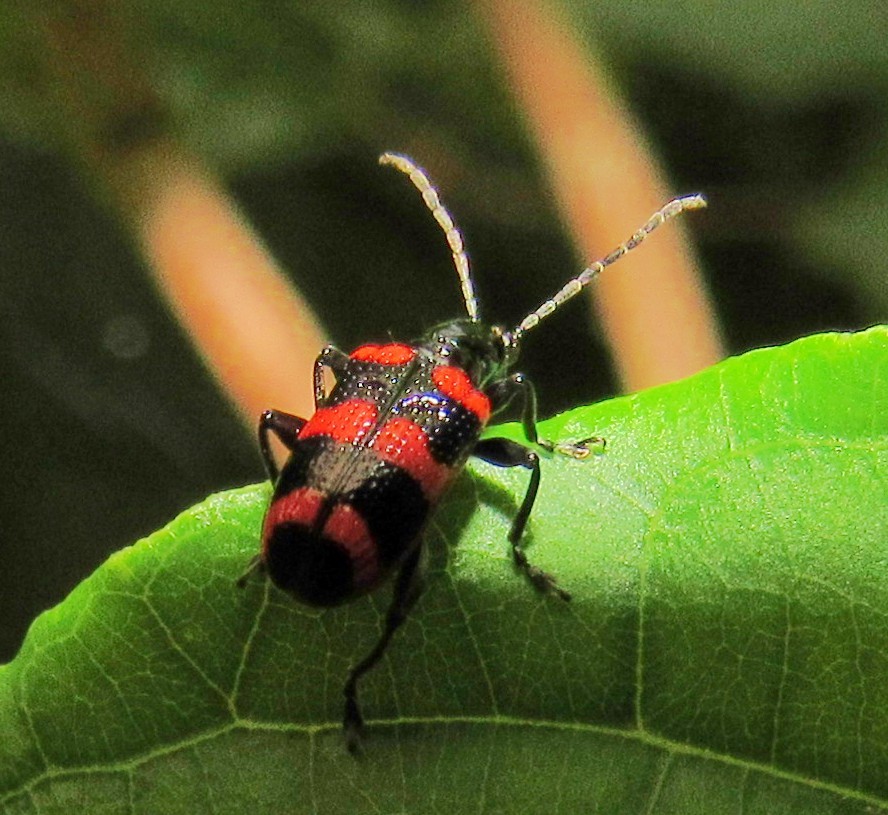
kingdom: Animalia
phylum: Arthropoda
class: Insecta
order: Coleoptera
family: Chrysomelidae
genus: Neolema
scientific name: Neolema
